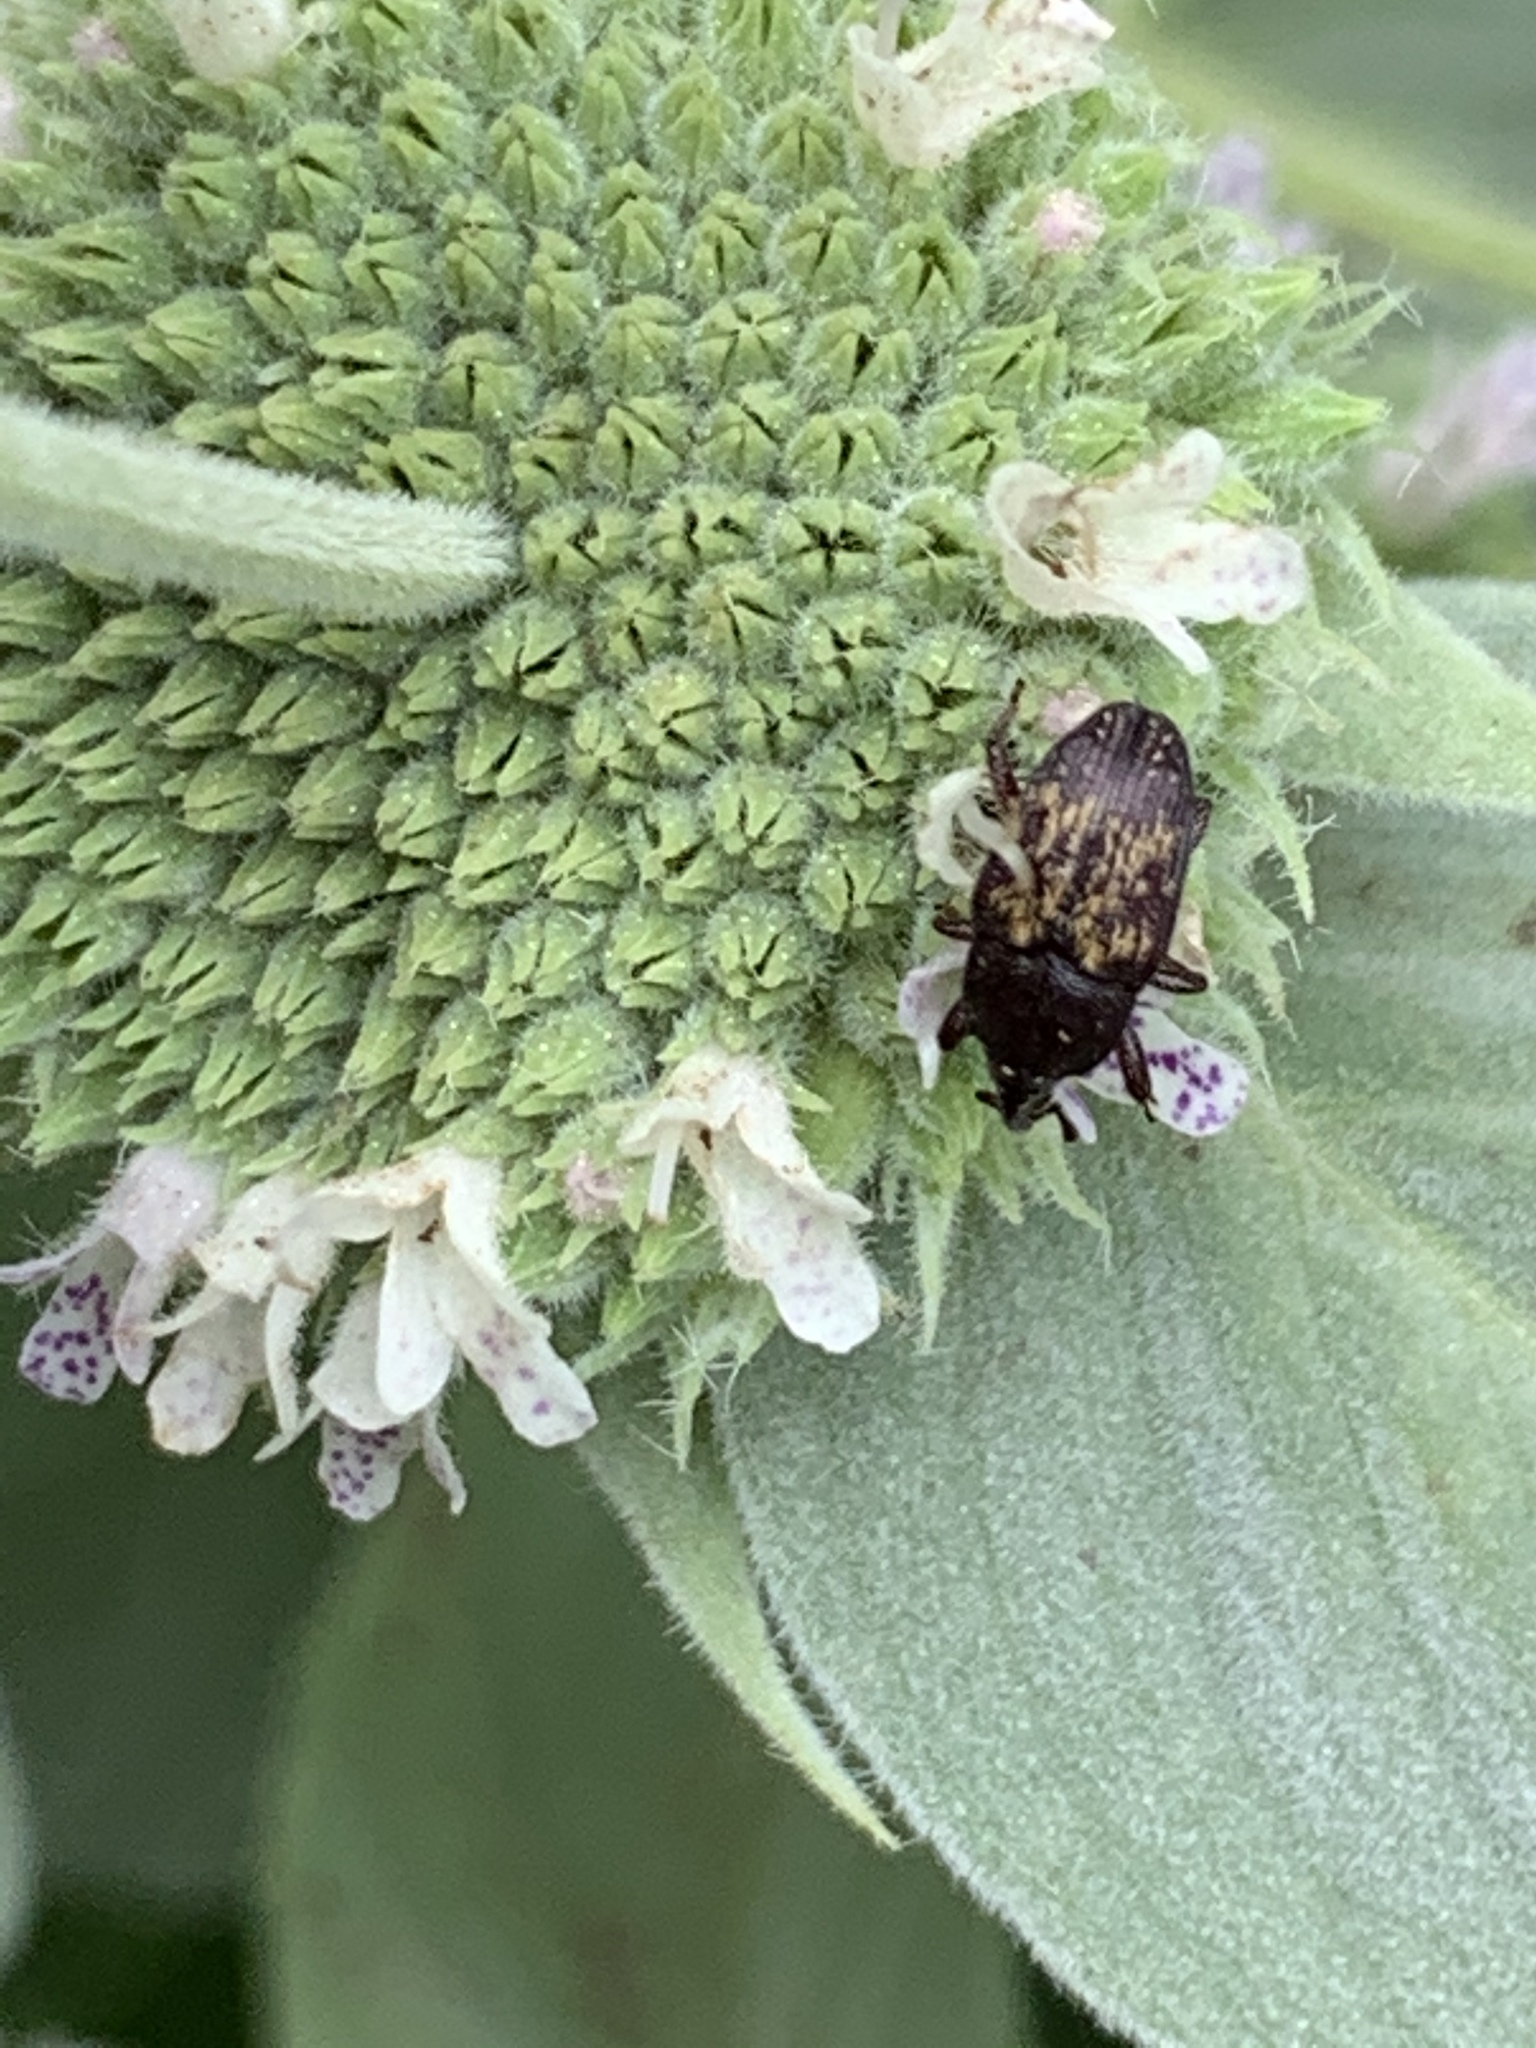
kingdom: Animalia
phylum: Arthropoda
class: Insecta
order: Coleoptera
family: Curculionidae
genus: Glyptobaris
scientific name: Glyptobaris lecontei
